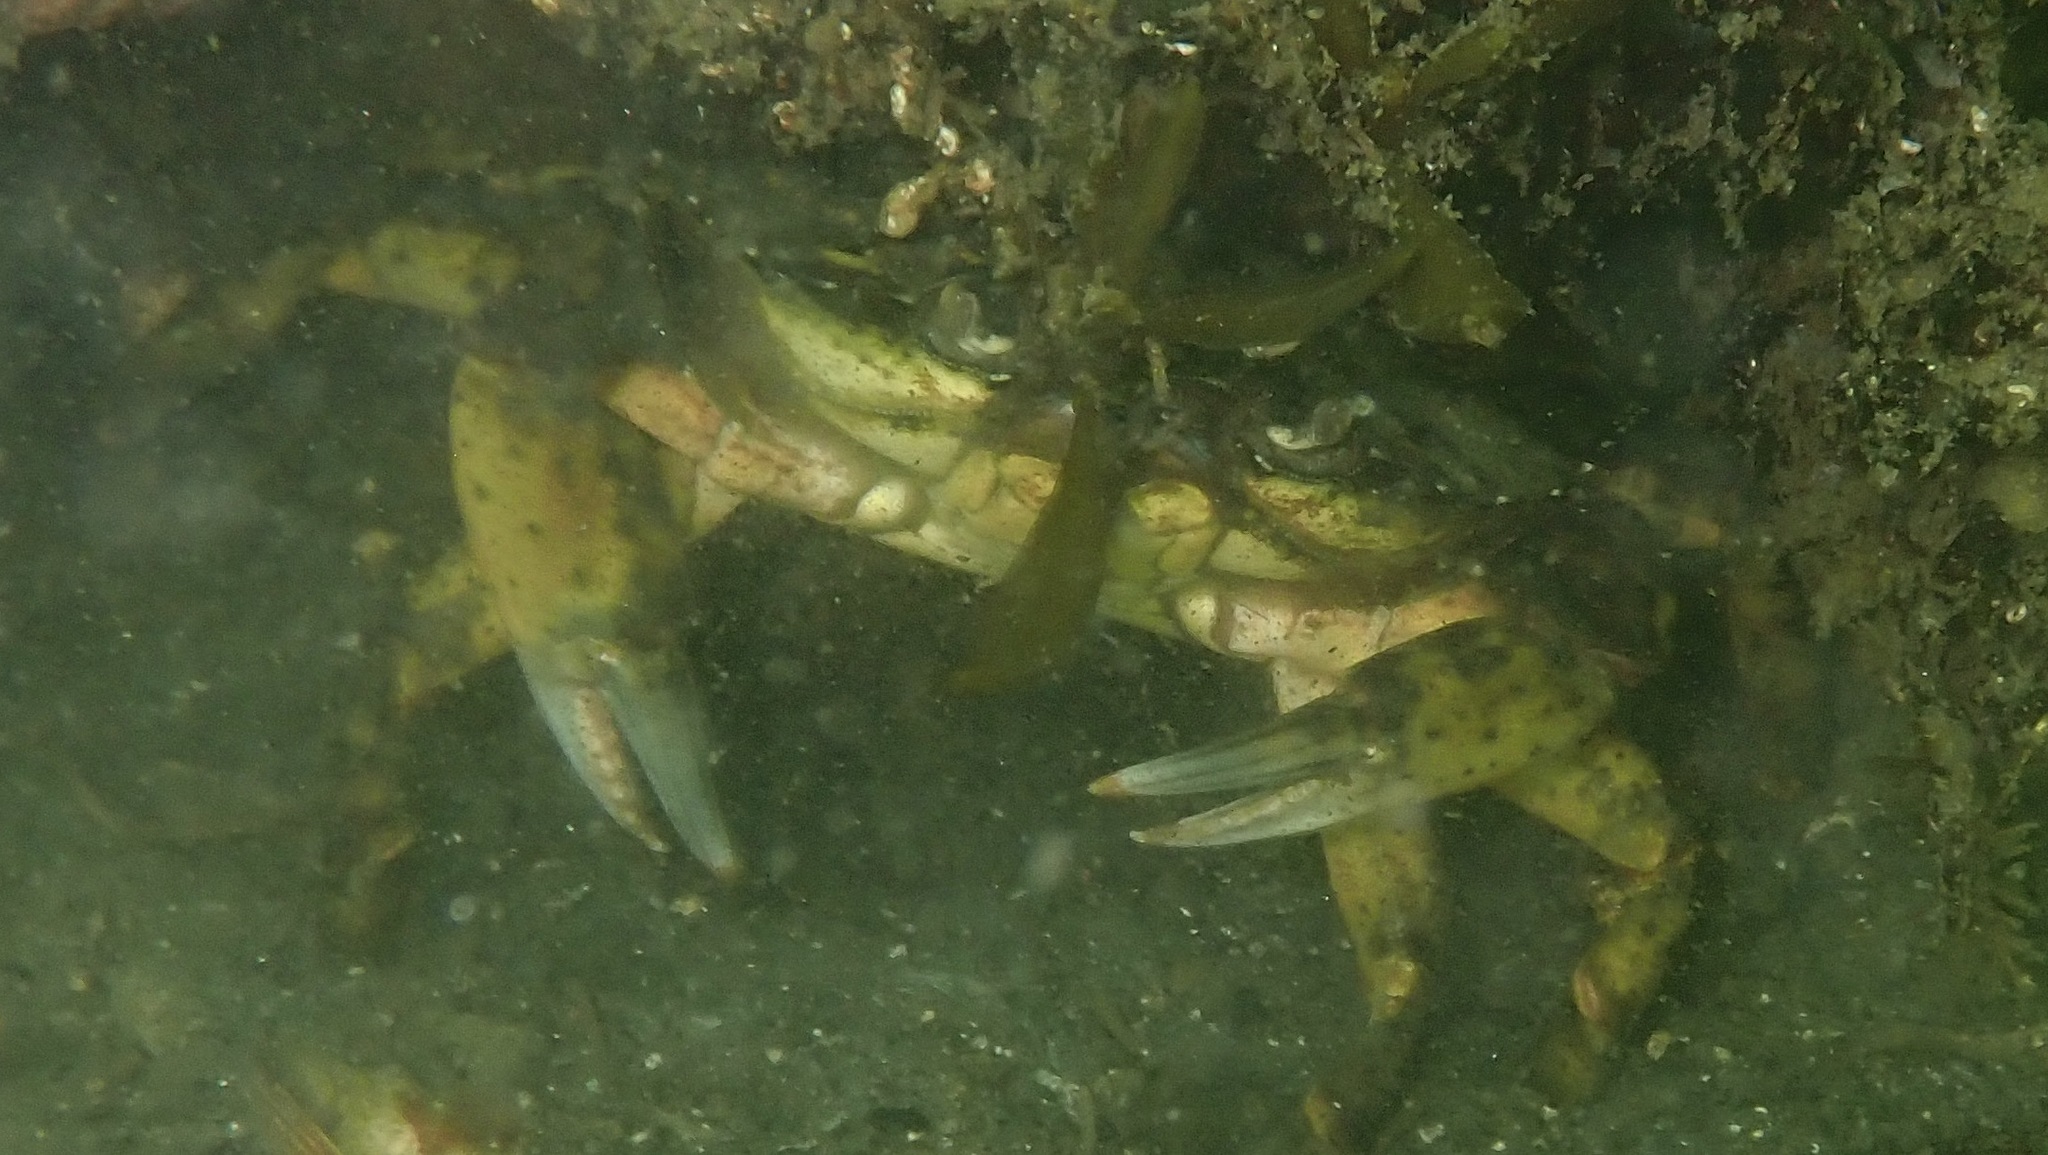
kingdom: Animalia
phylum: Arthropoda
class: Malacostraca
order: Decapoda
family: Carcinidae
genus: Carcinus
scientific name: Carcinus maenas
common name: European green crab
